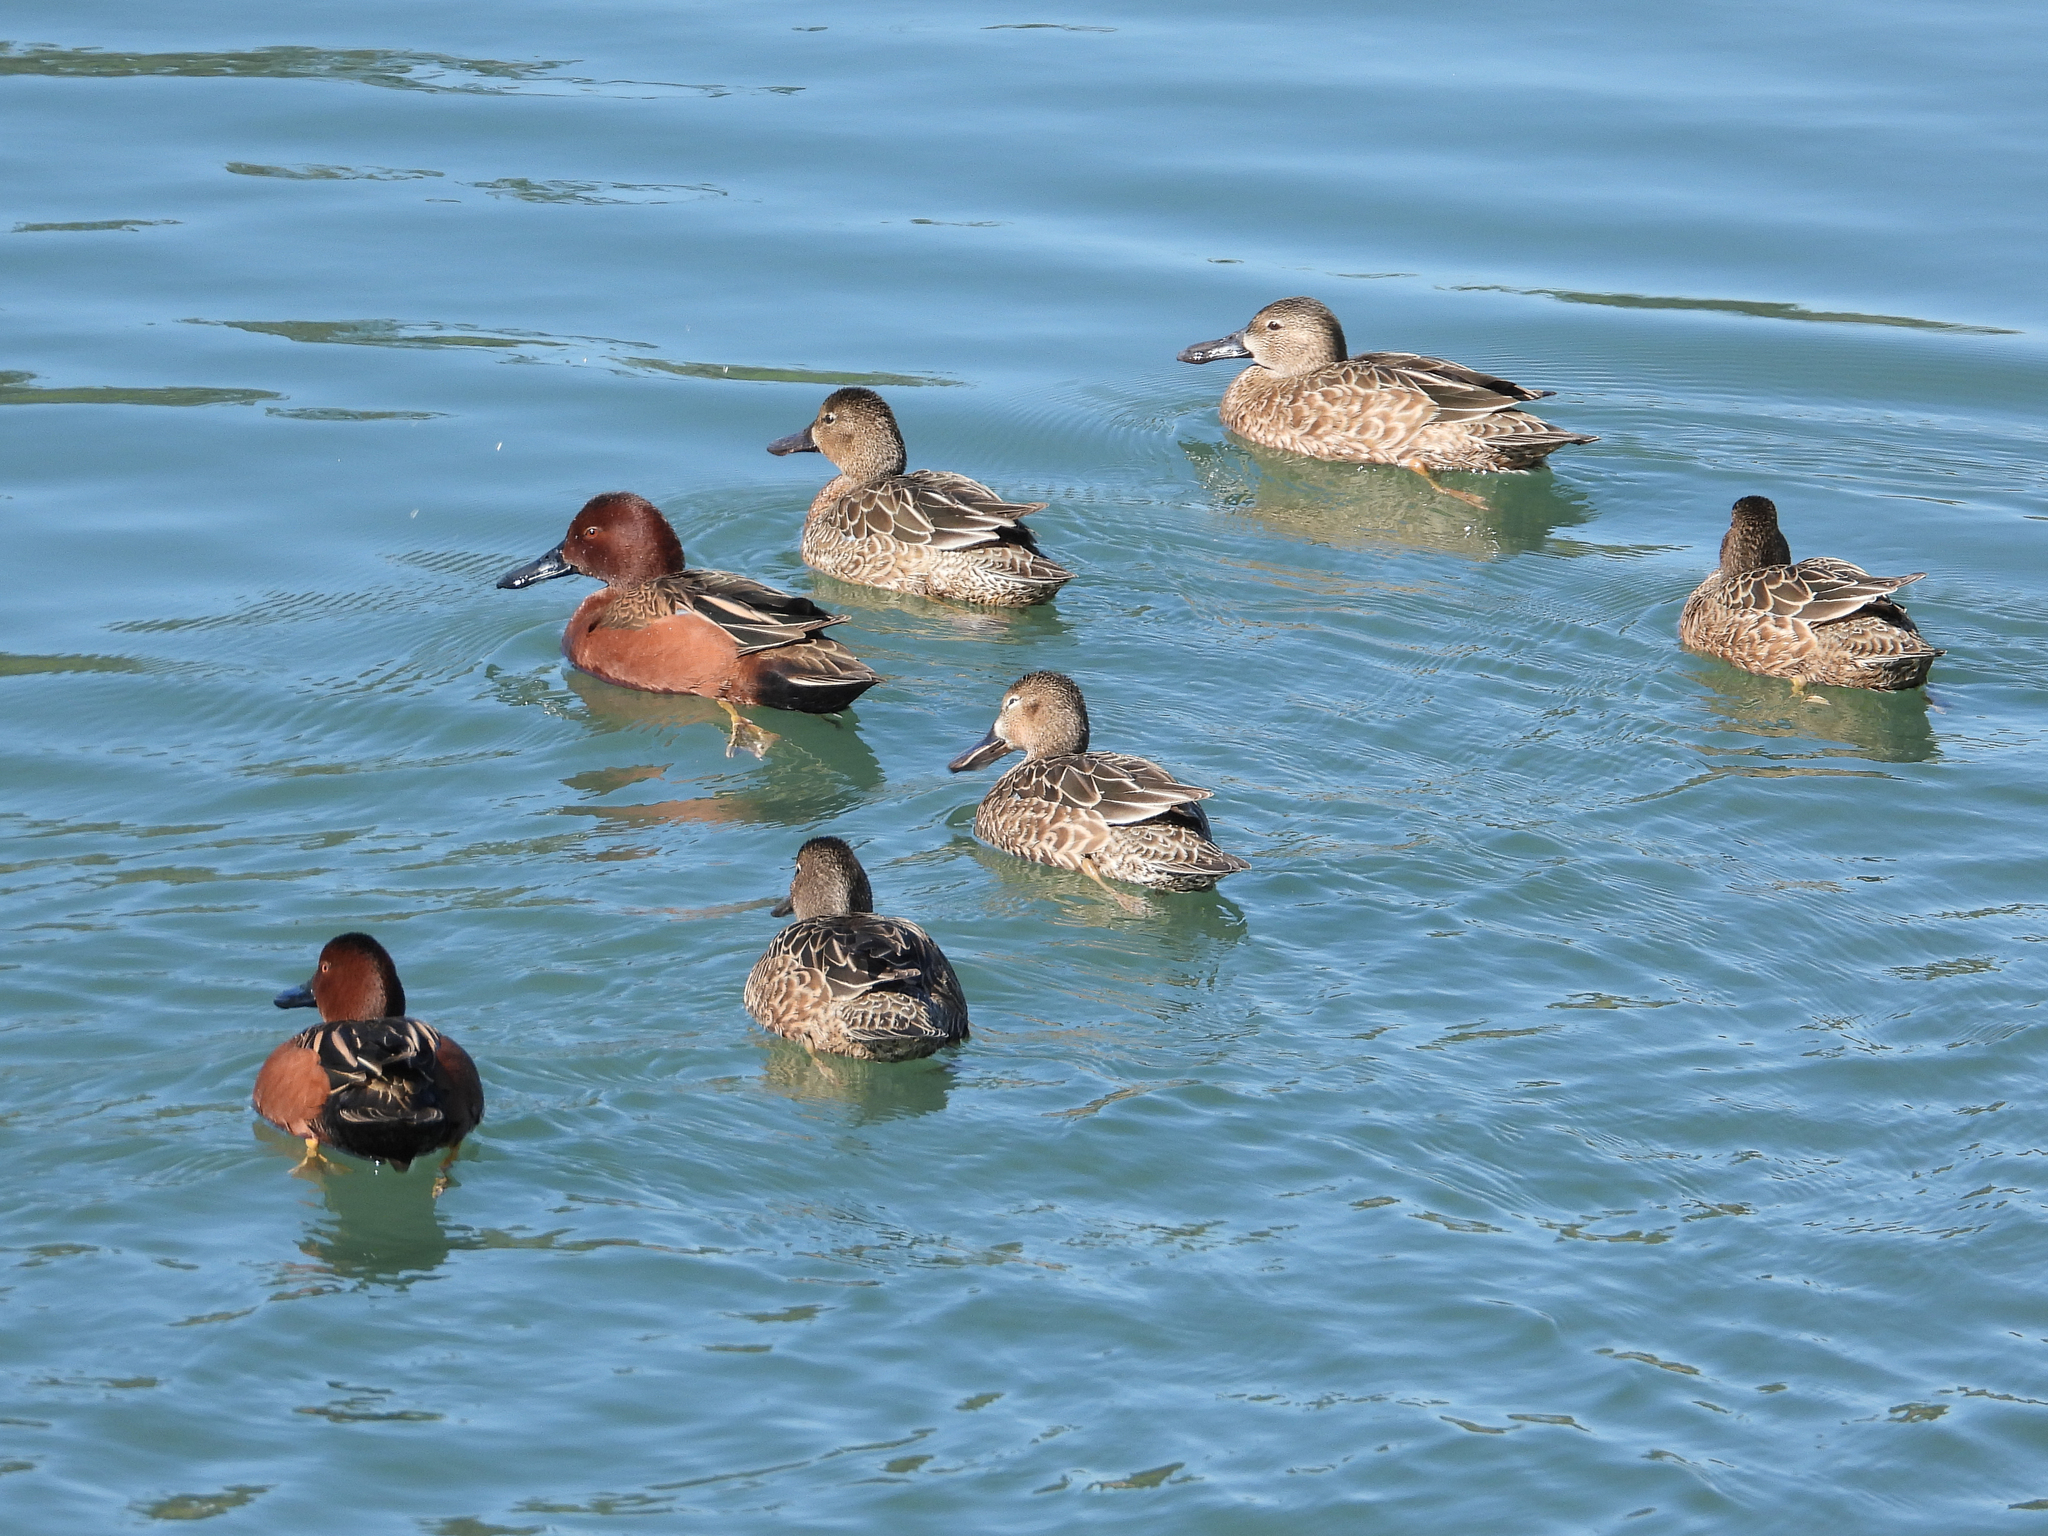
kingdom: Animalia
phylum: Chordata
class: Aves
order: Anseriformes
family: Anatidae
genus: Spatula
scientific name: Spatula cyanoptera
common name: Cinnamon teal
